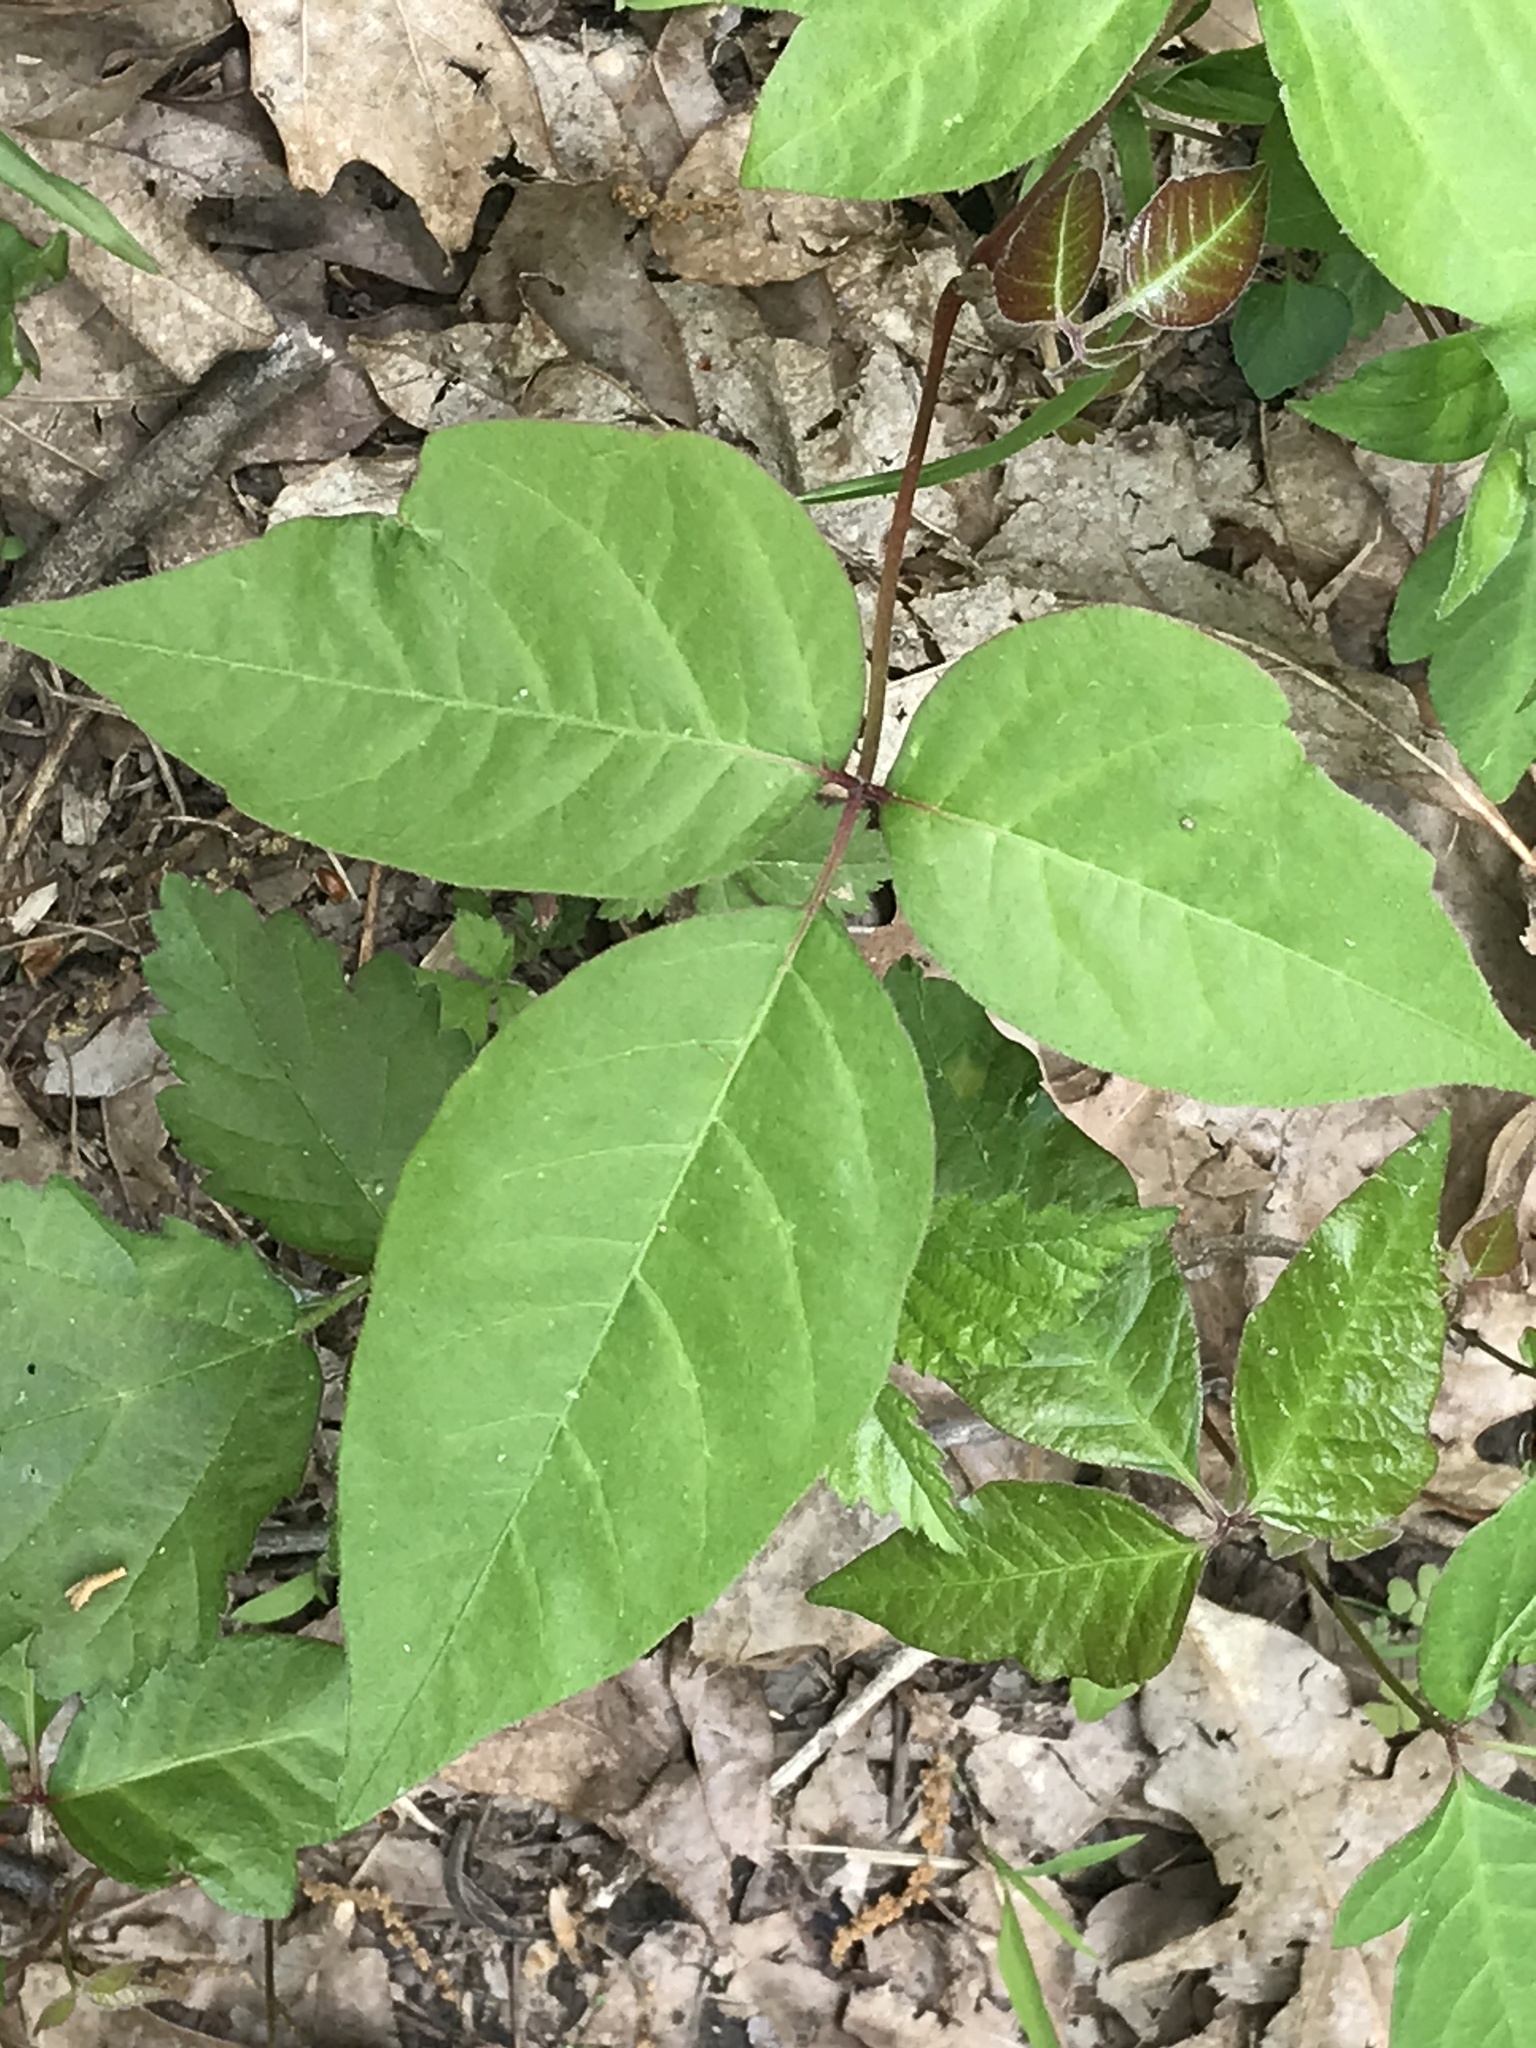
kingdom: Plantae
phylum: Tracheophyta
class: Magnoliopsida
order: Sapindales
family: Anacardiaceae
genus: Toxicodendron
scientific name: Toxicodendron radicans
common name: Poison ivy
